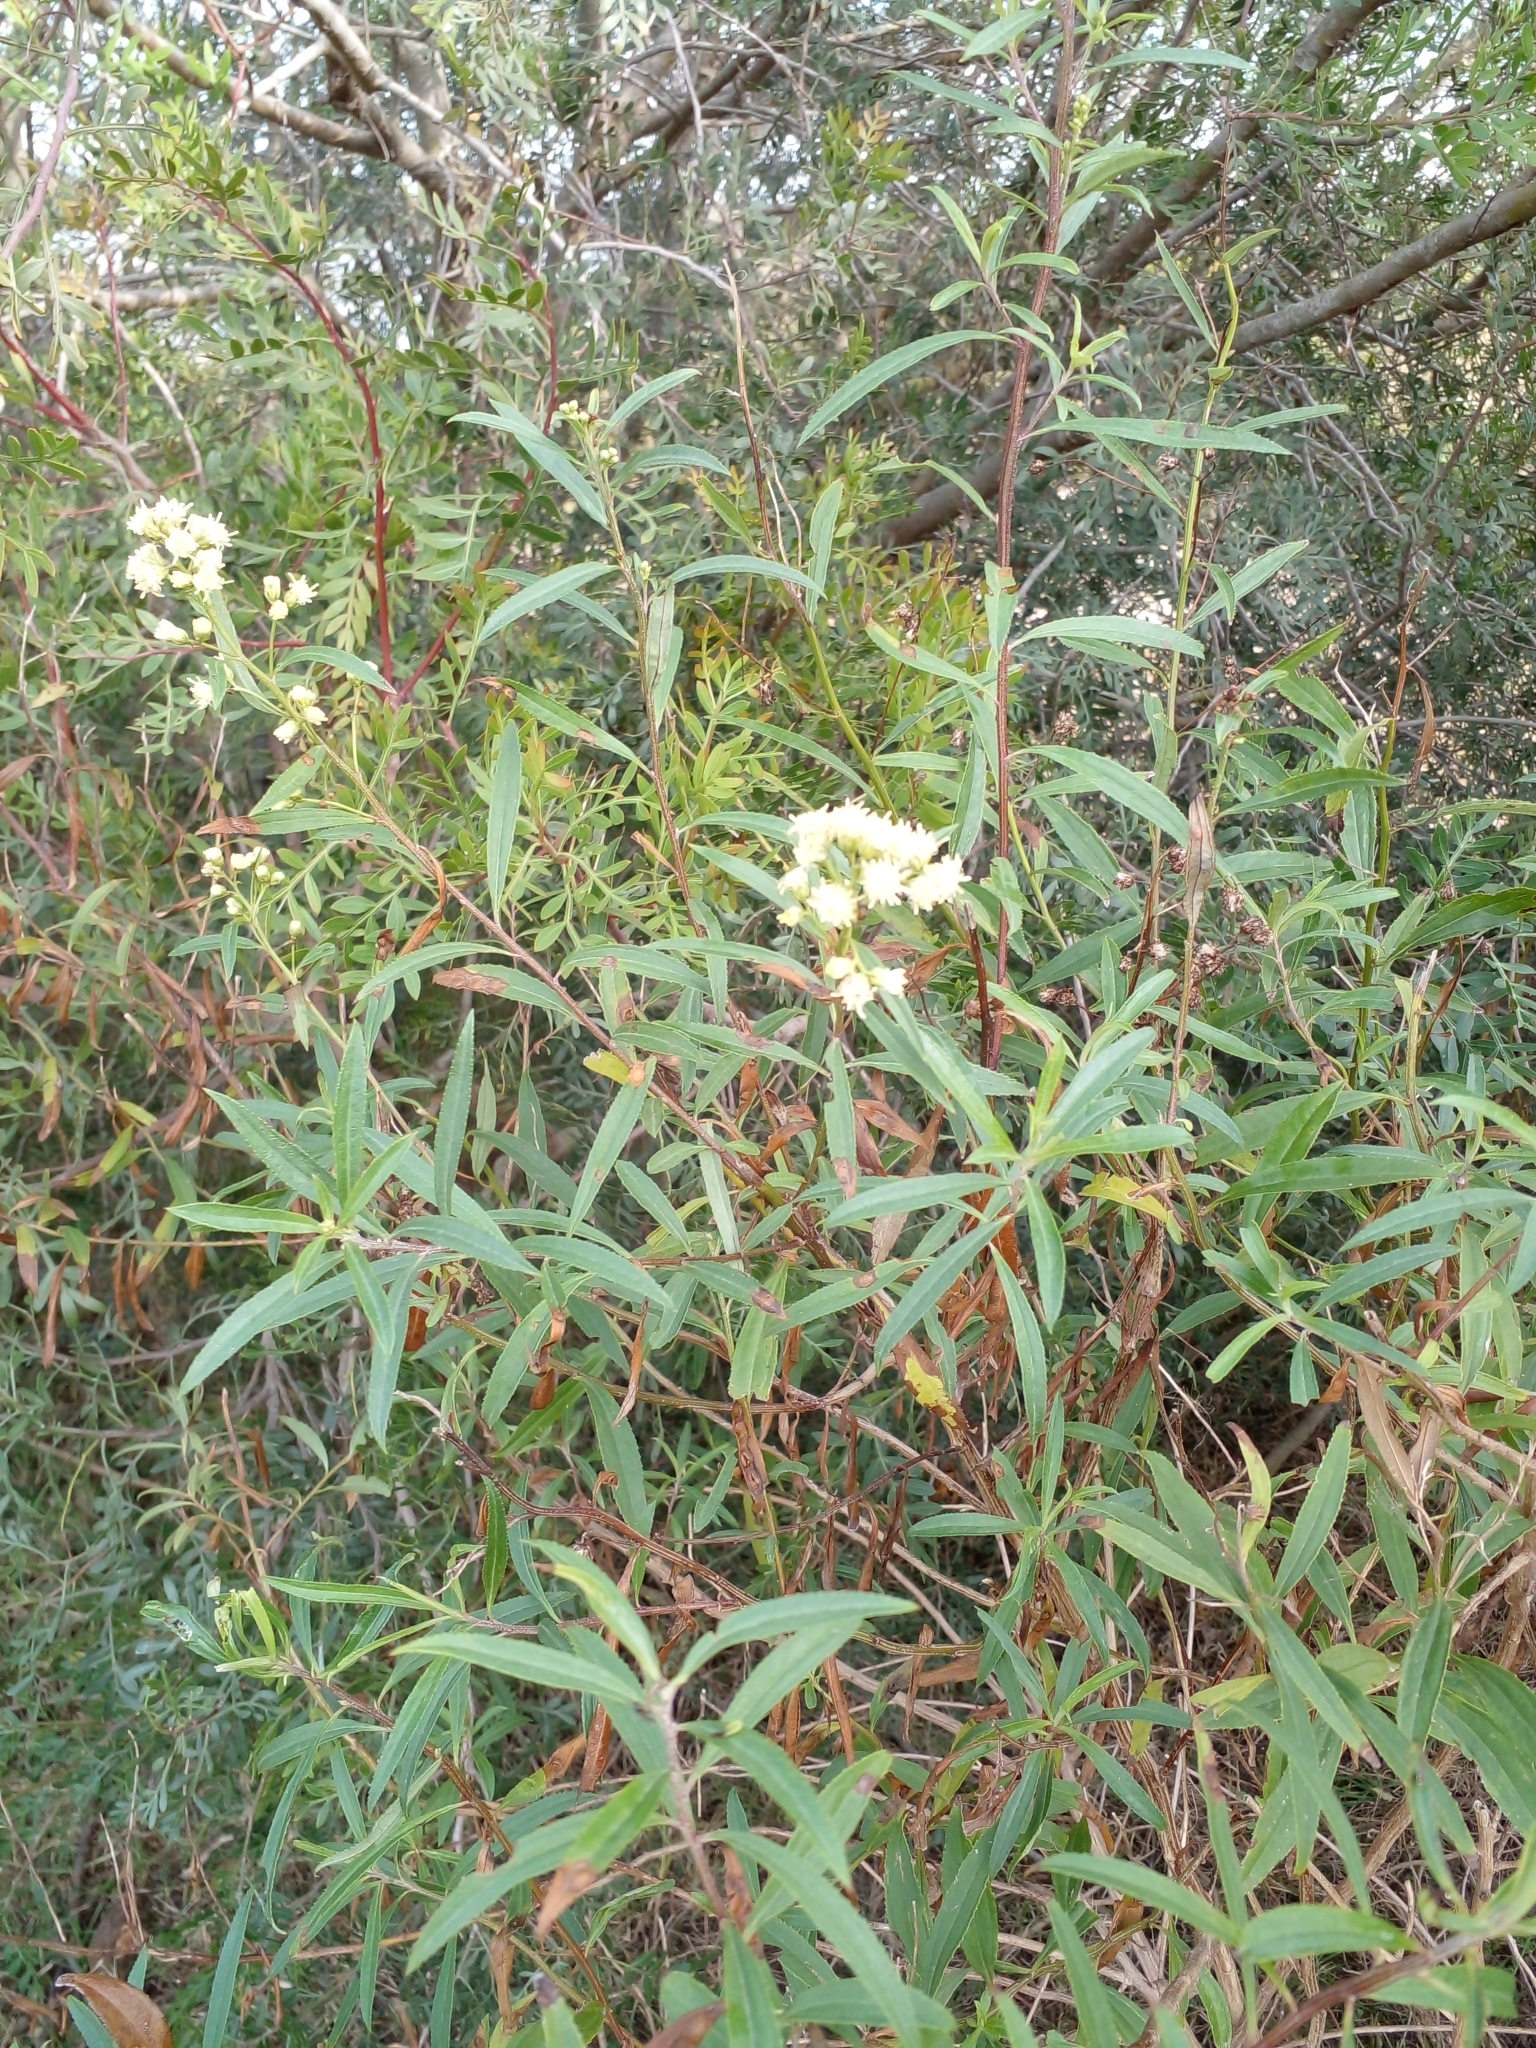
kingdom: Plantae
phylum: Tracheophyta
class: Magnoliopsida
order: Asterales
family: Asteraceae
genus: Baccharis
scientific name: Baccharis salicifolia
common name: Sticky baccharis
